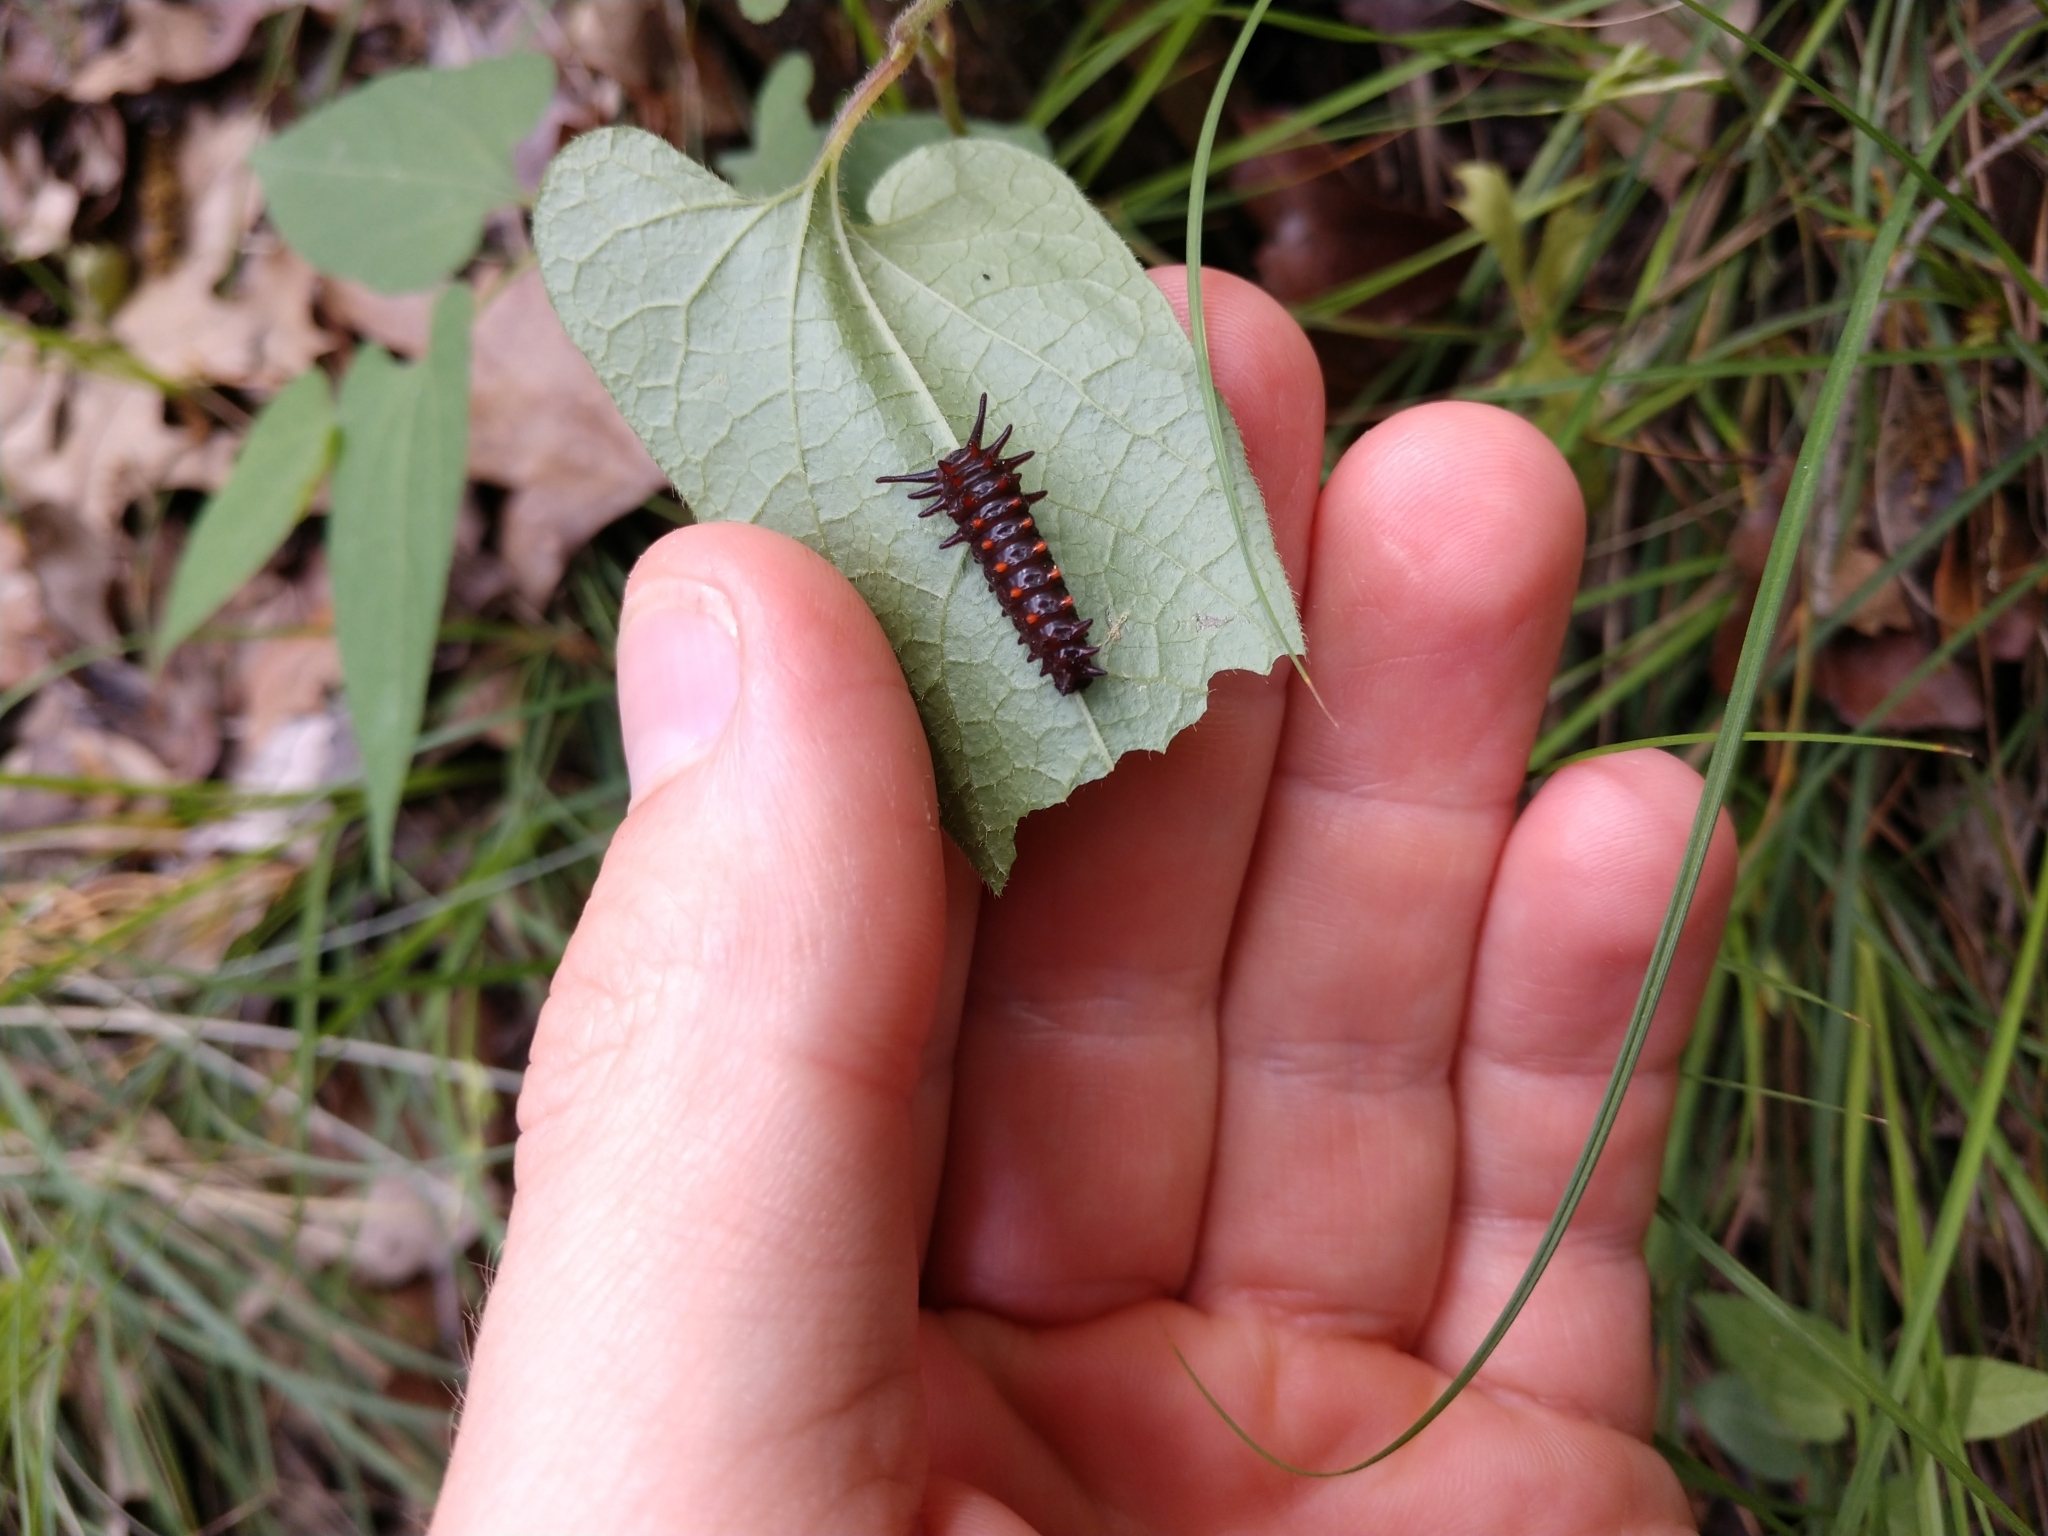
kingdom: Animalia
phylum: Arthropoda
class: Insecta
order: Lepidoptera
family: Papilionidae
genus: Battus
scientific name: Battus philenor
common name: Pipevine swallowtail
